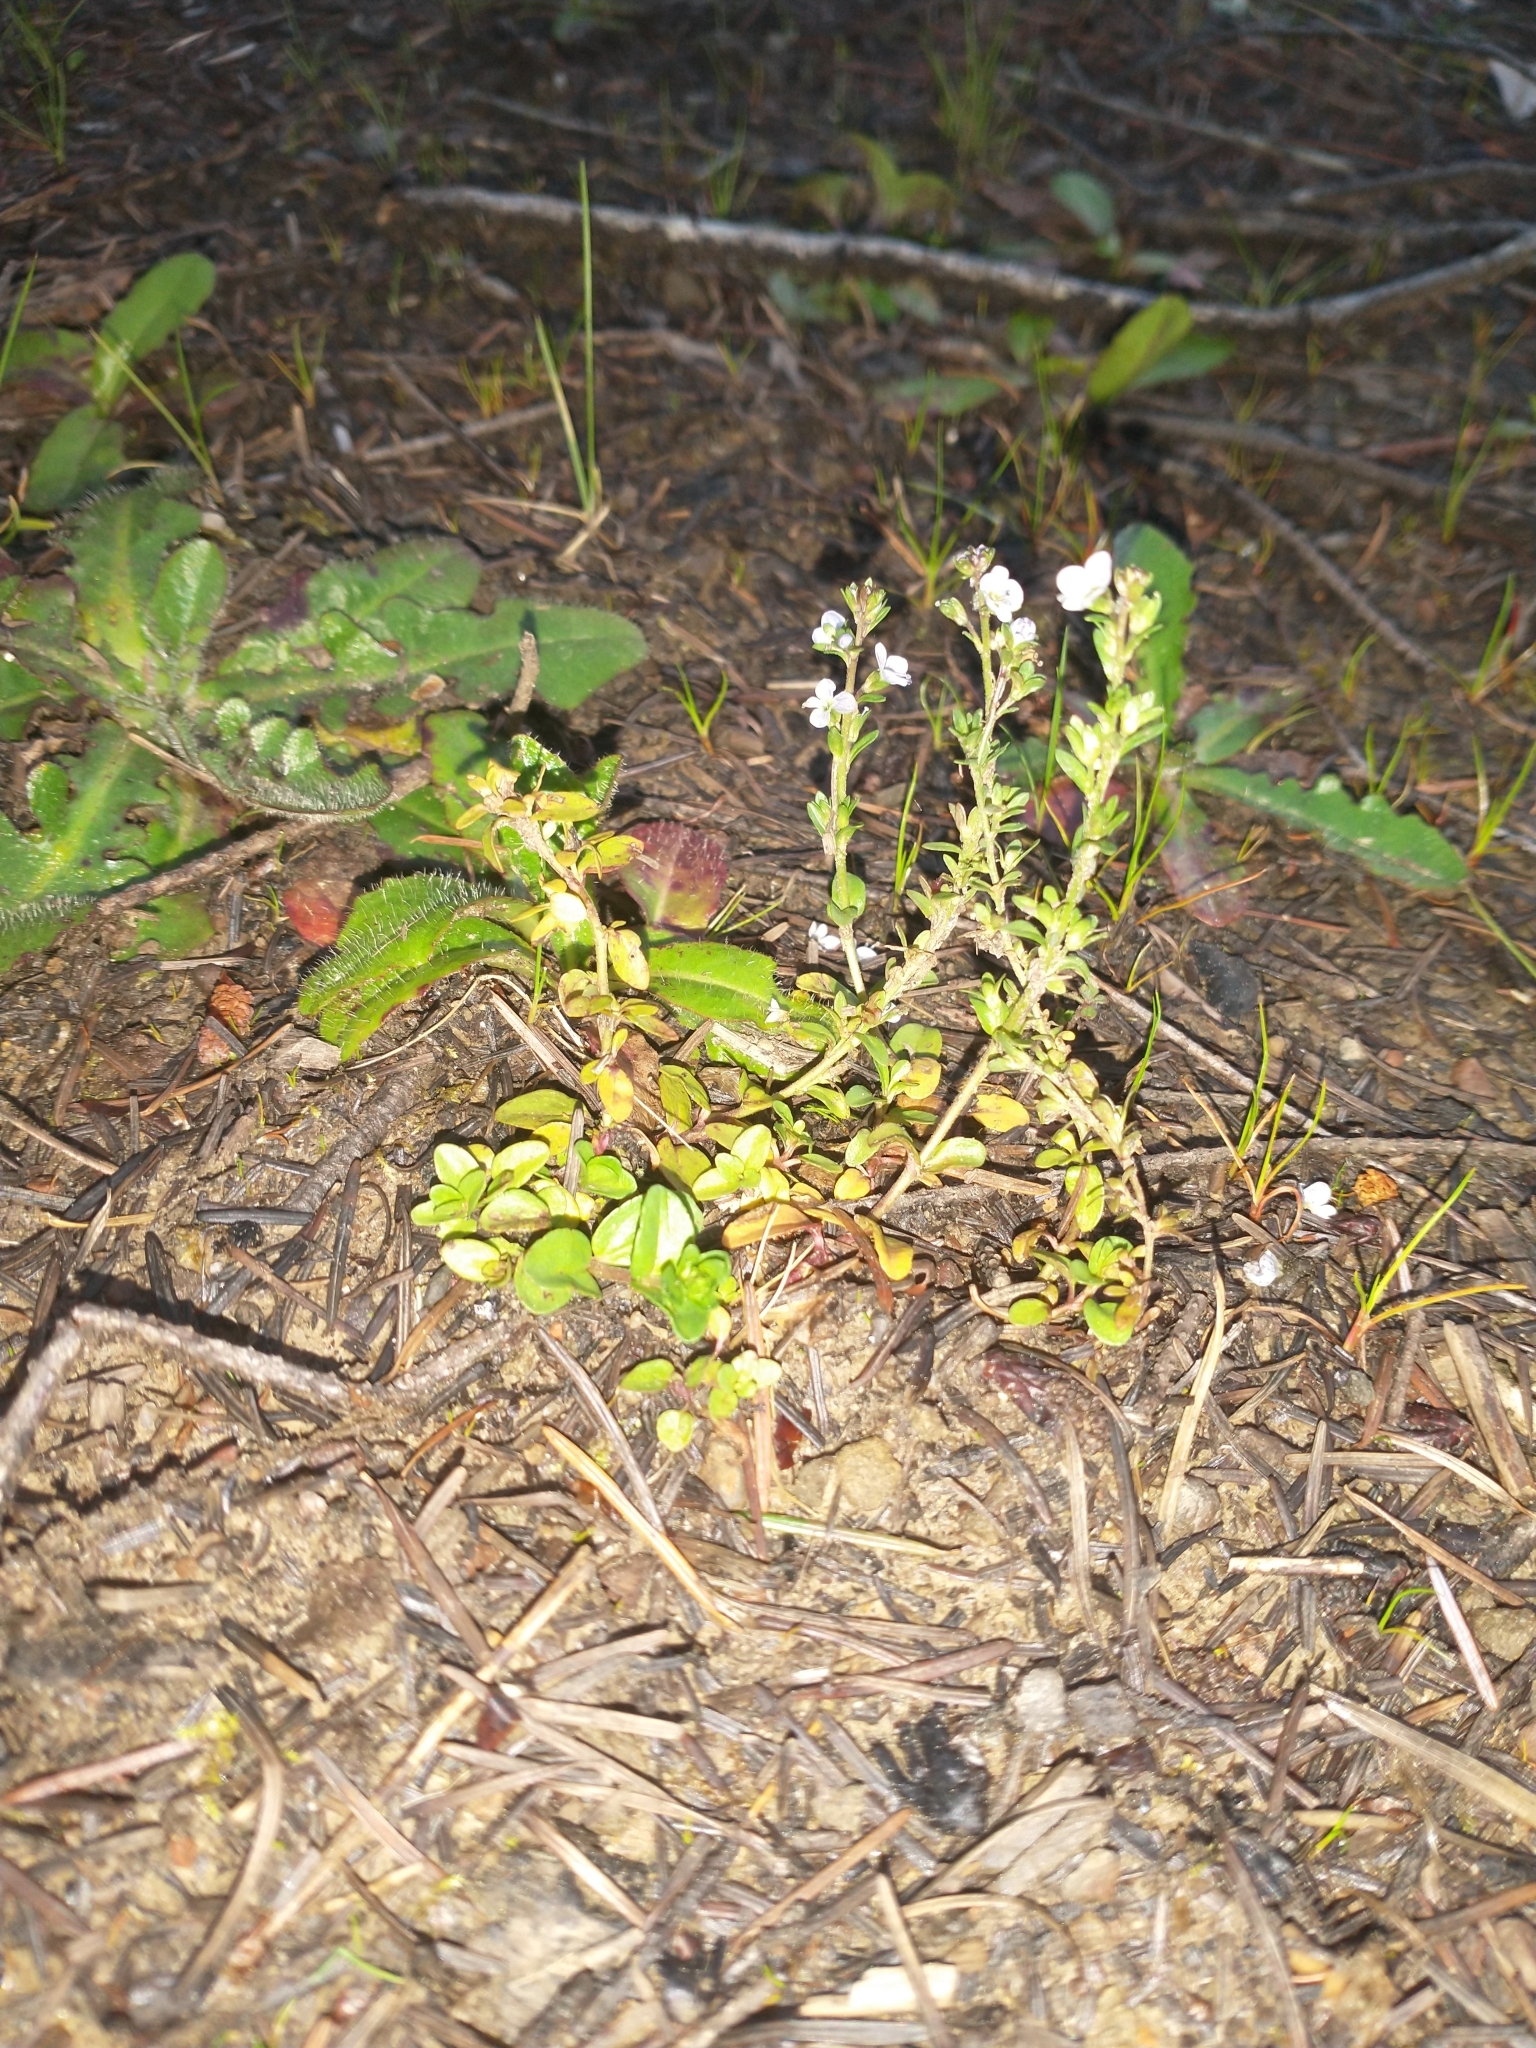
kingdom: Plantae
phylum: Tracheophyta
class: Magnoliopsida
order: Lamiales
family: Plantaginaceae
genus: Veronica
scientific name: Veronica serpyllifolia
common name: Thyme-leaved speedwell
